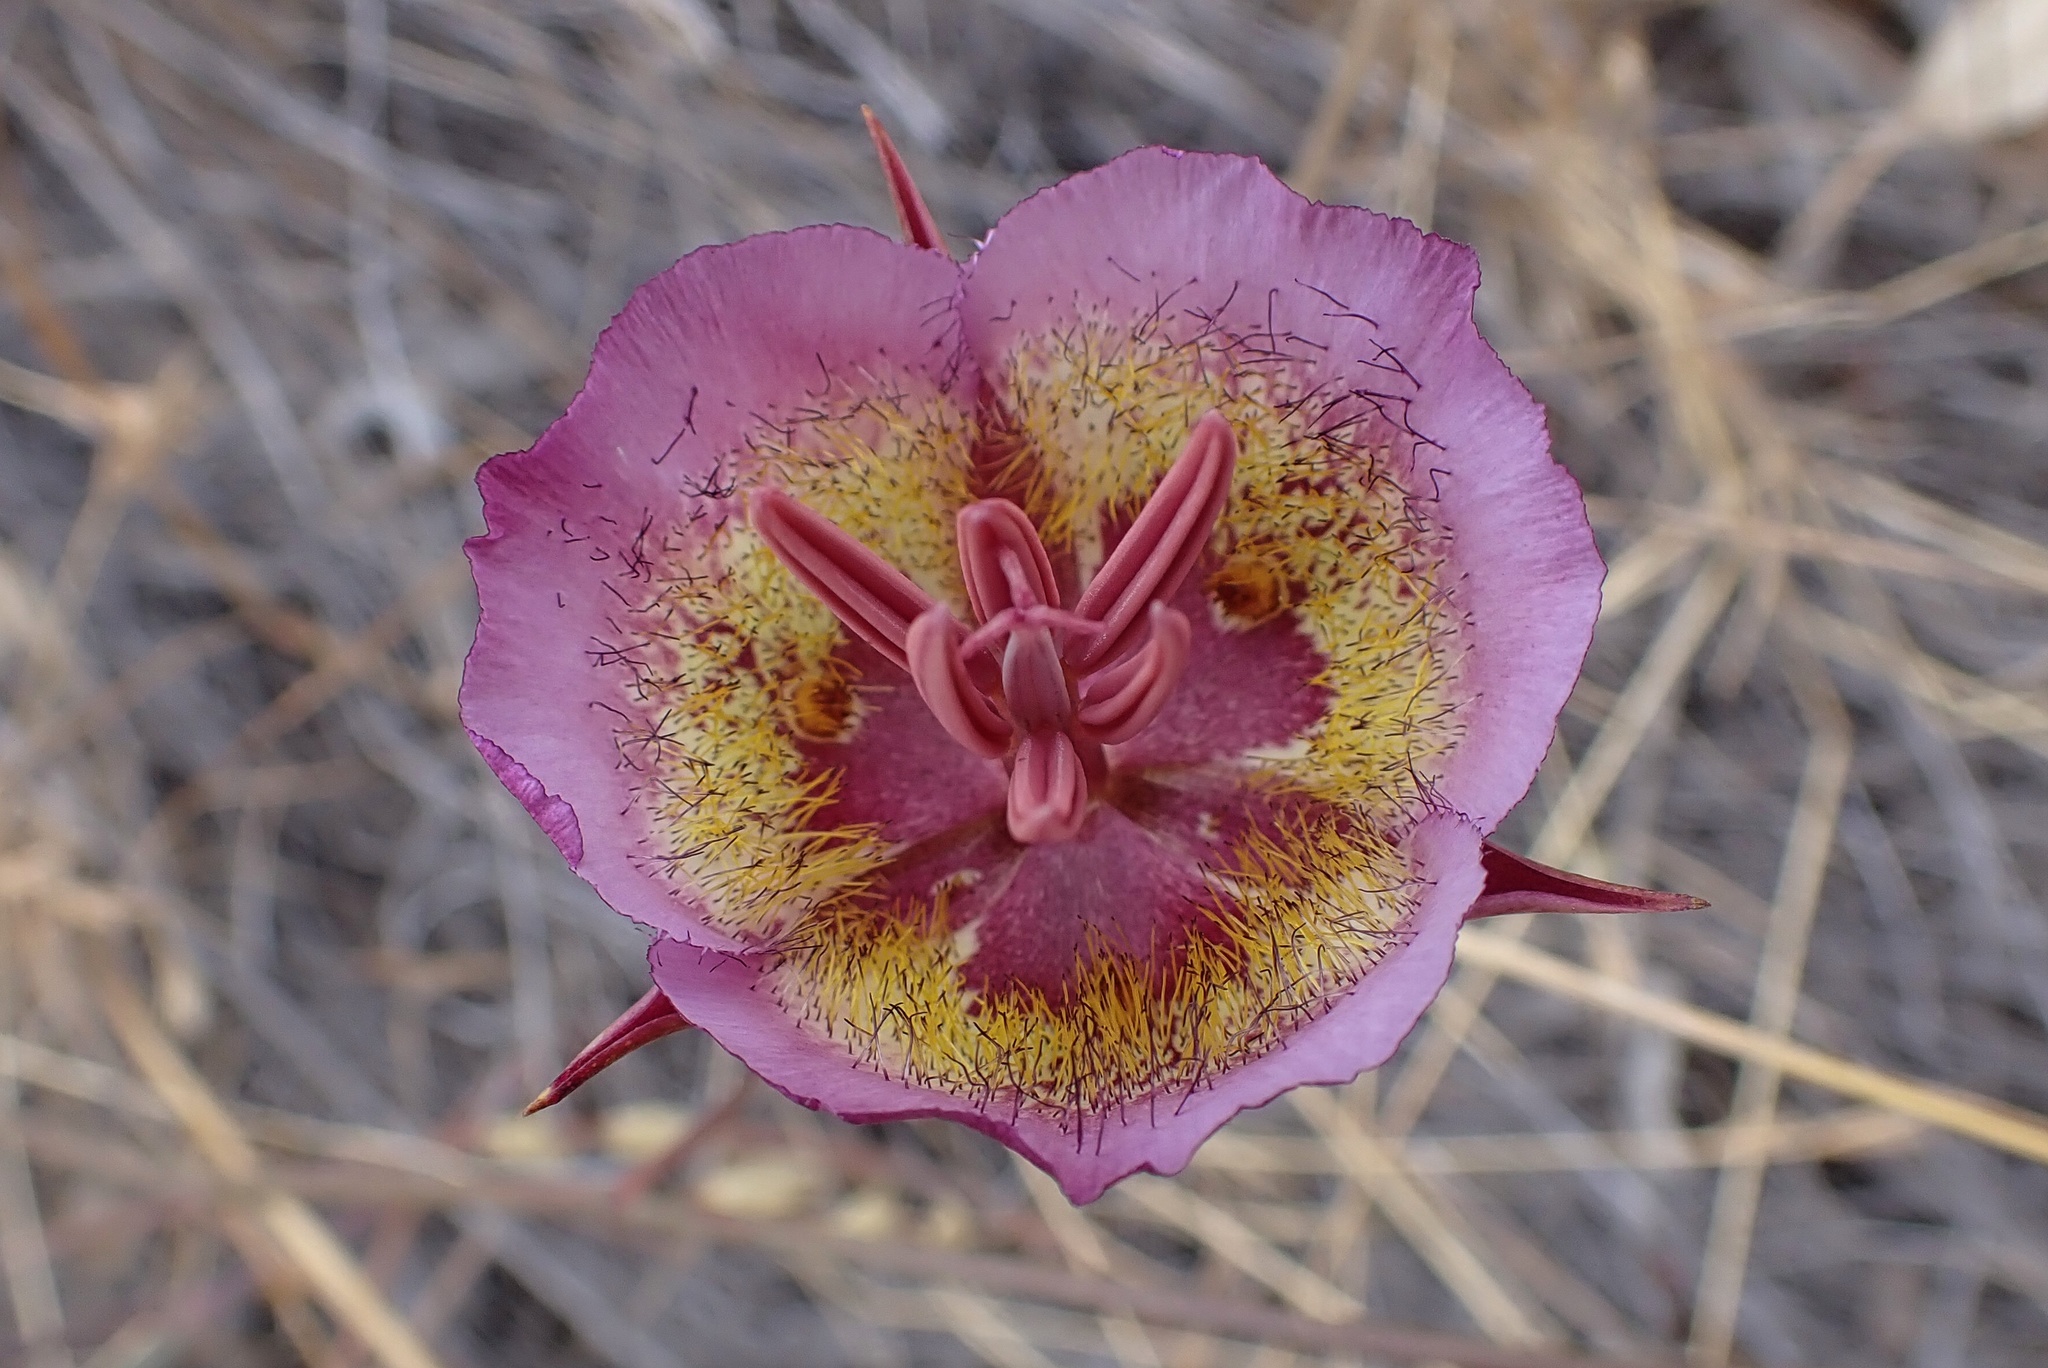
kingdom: Plantae
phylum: Tracheophyta
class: Liliopsida
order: Liliales
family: Liliaceae
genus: Calochortus
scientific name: Calochortus plummerae
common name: Plummer's mariposa-lily
